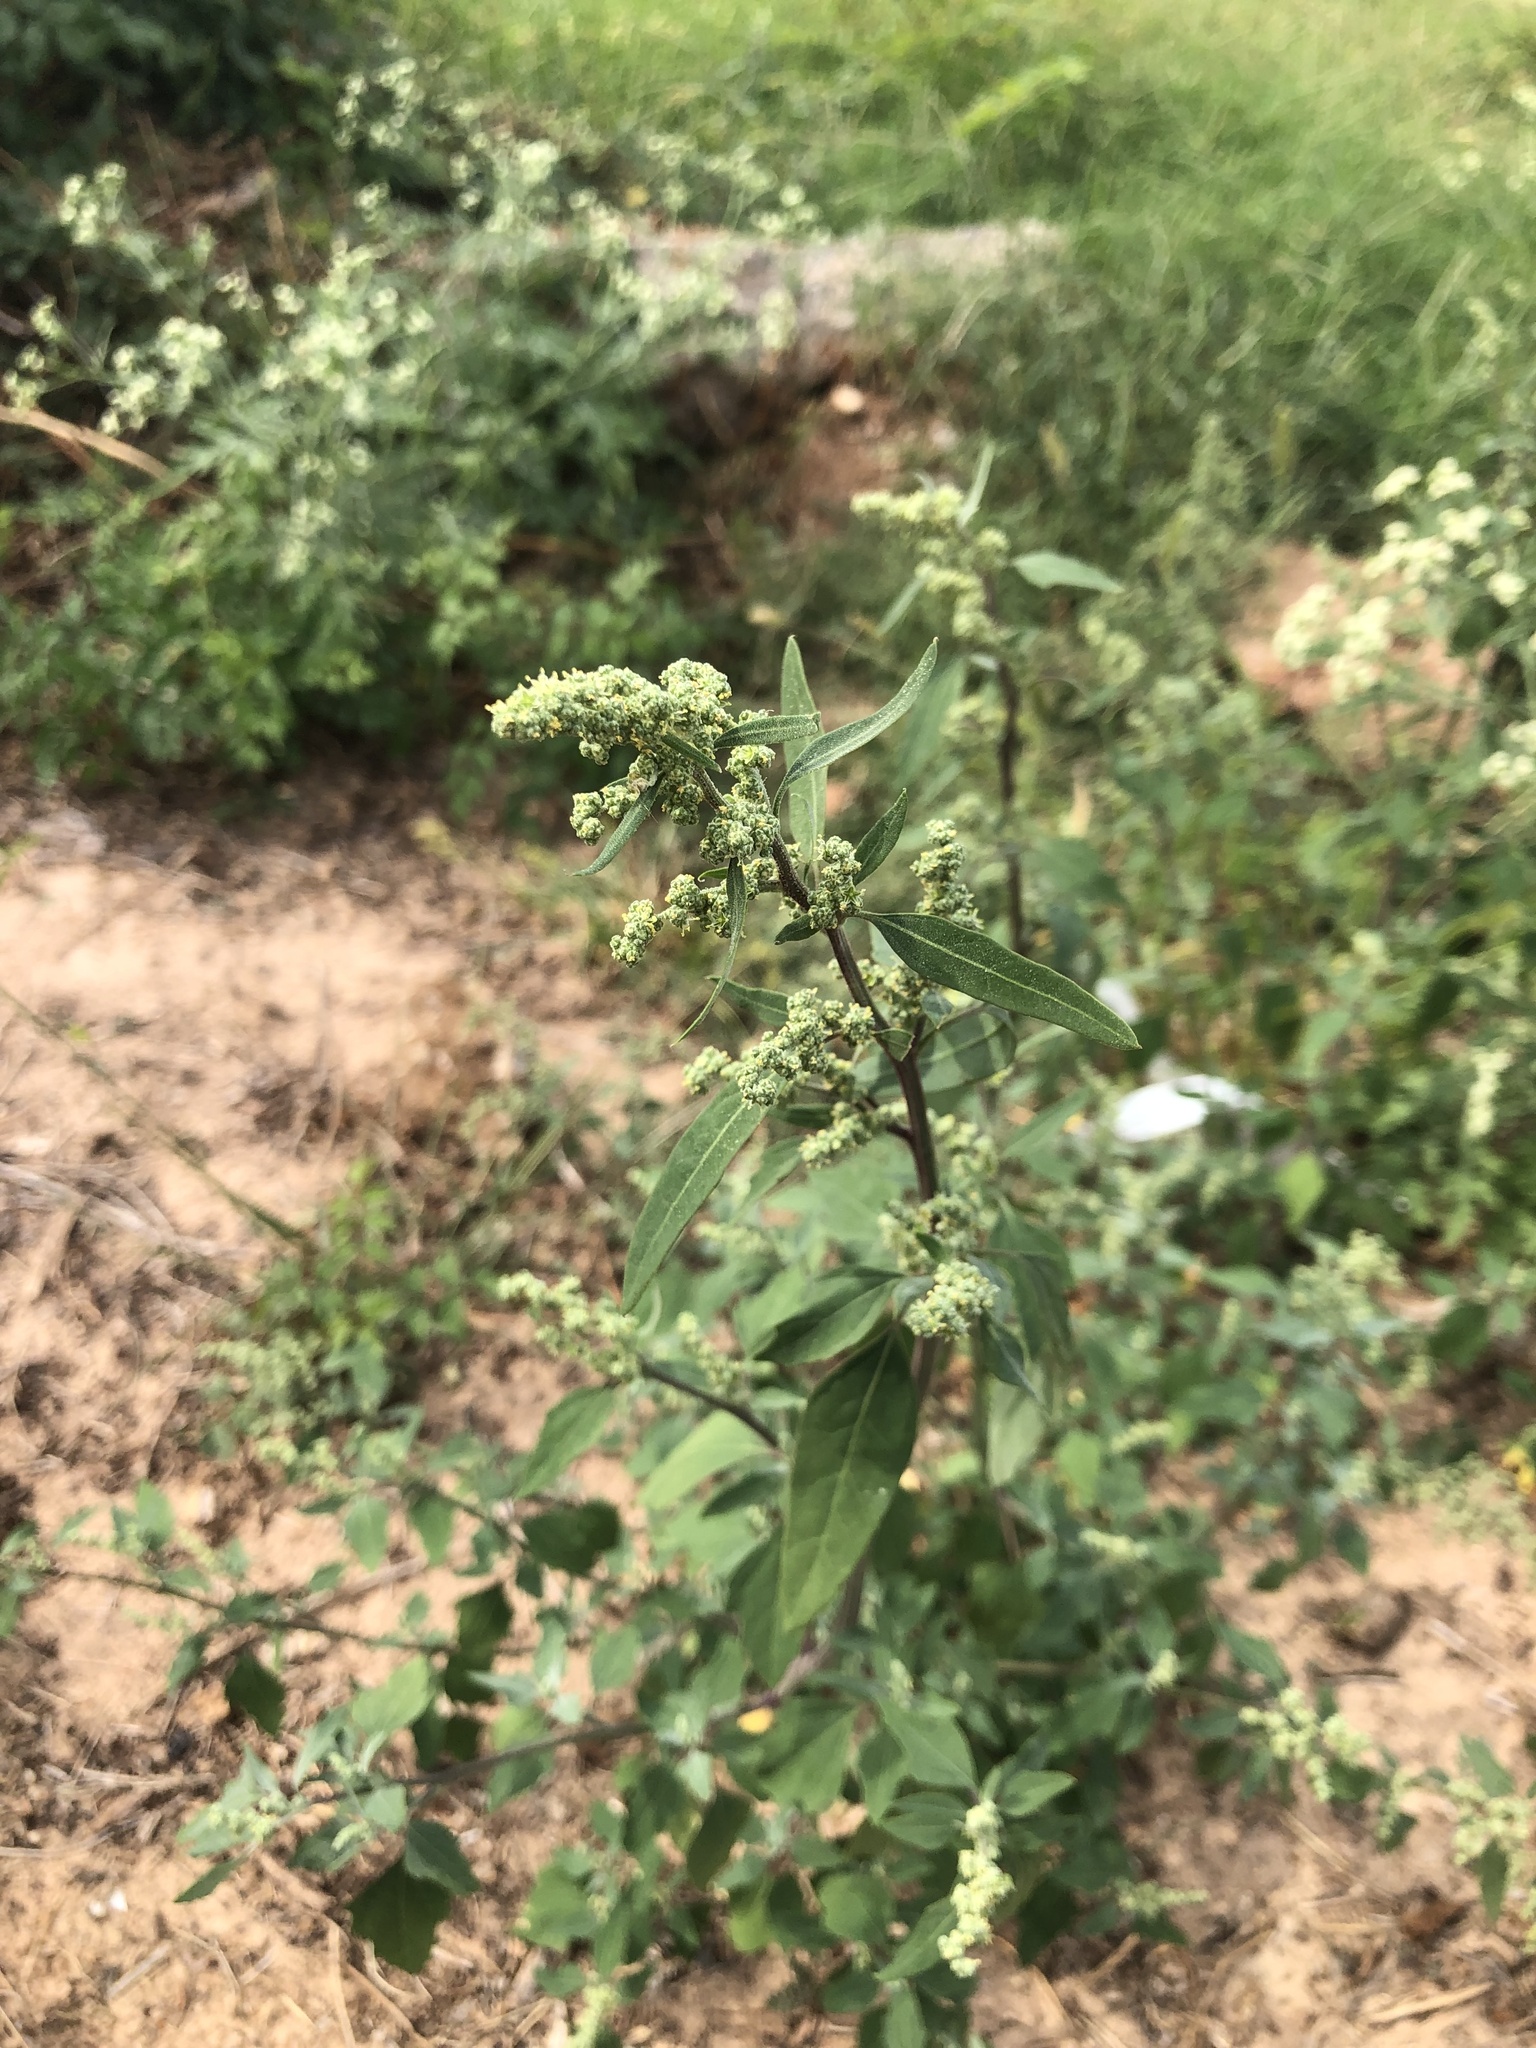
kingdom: Plantae
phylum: Tracheophyta
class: Magnoliopsida
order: Caryophyllales
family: Amaranthaceae
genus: Chenopodium
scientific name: Chenopodium album
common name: Fat-hen
